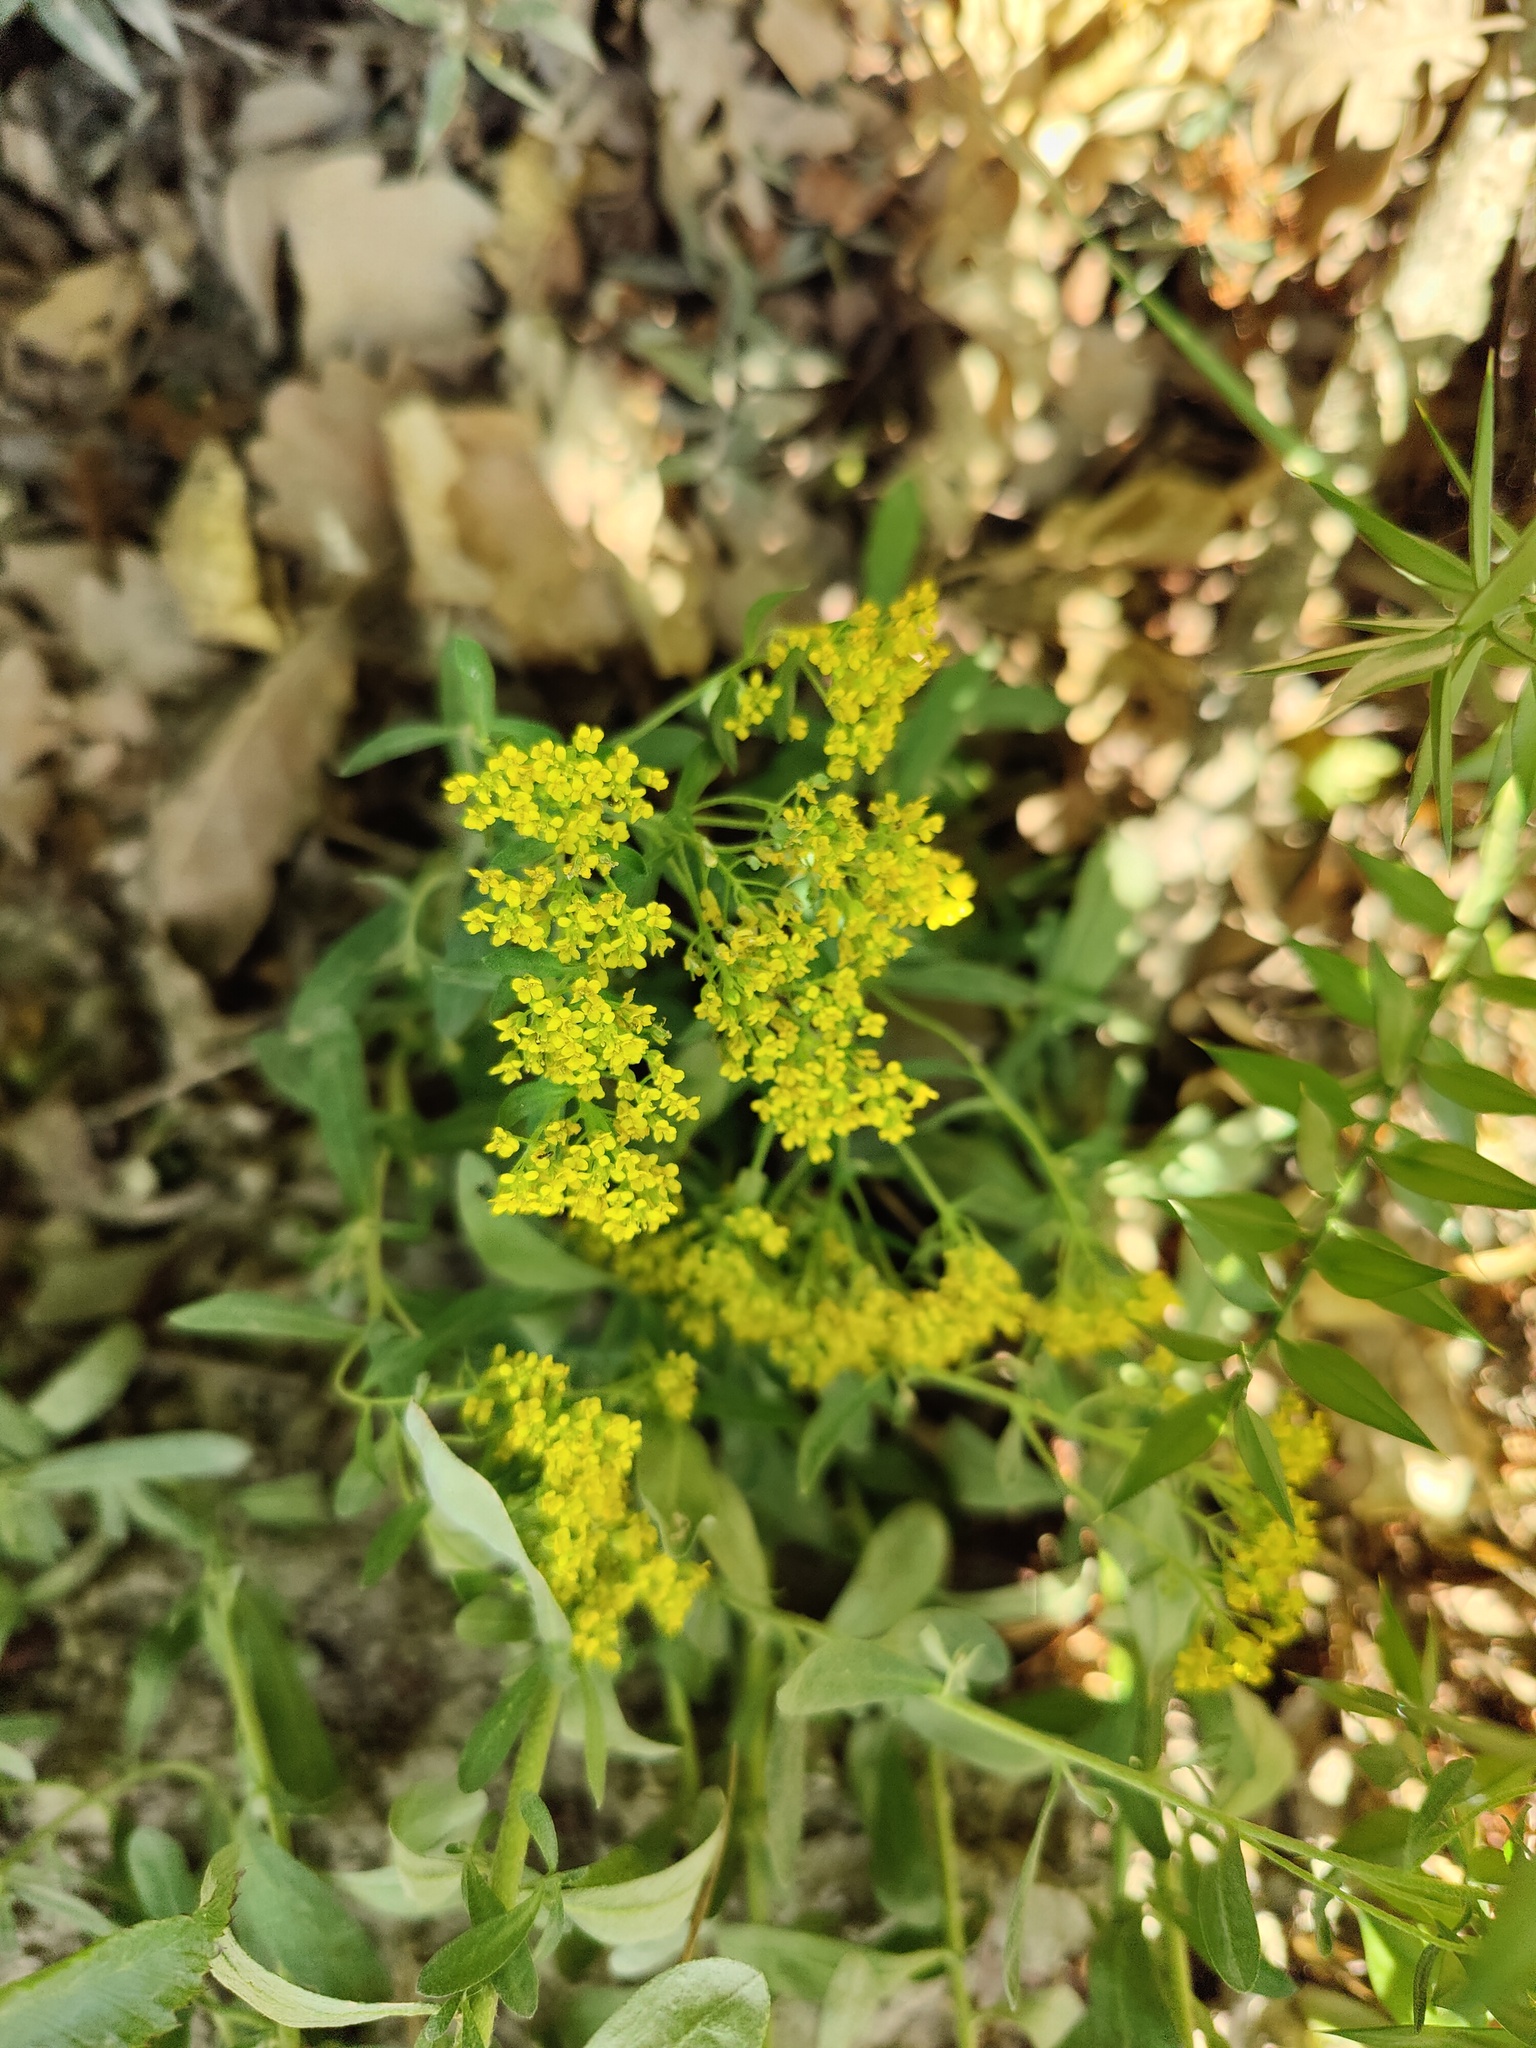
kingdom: Plantae
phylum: Tracheophyta
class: Magnoliopsida
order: Brassicales
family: Brassicaceae
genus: Odontarrhena
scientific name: Odontarrhena muralis
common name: Rock alyssum
